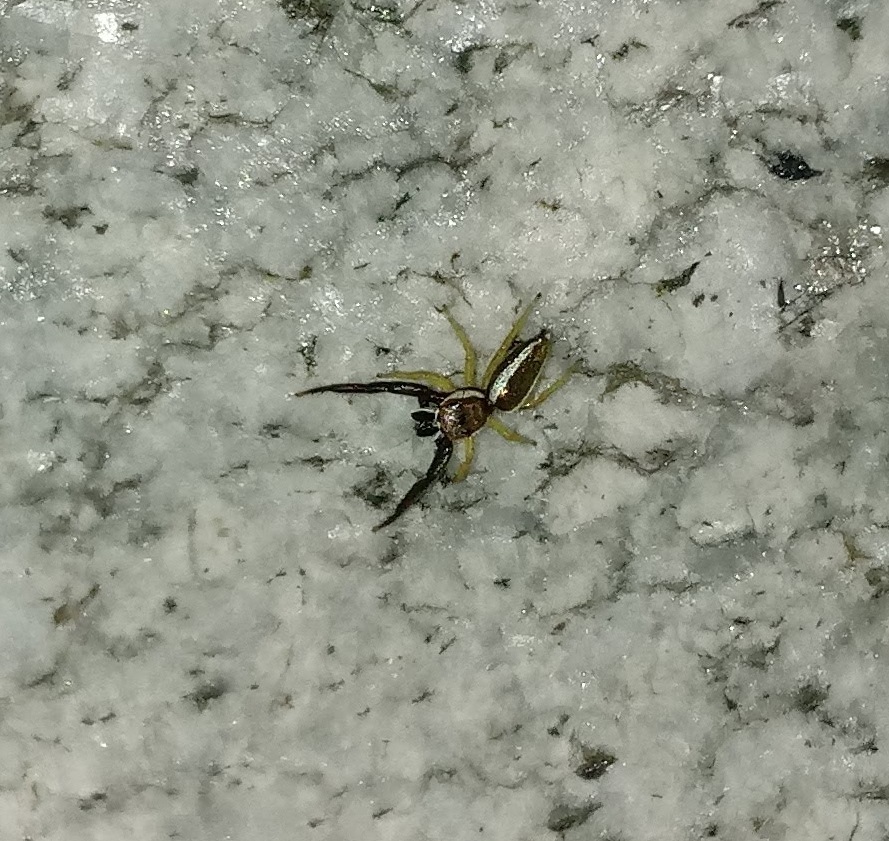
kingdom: Animalia
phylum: Arthropoda
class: Arachnida
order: Araneae
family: Salticidae
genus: Hentzia
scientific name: Hentzia palmarum
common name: Common hentz jumping spider
